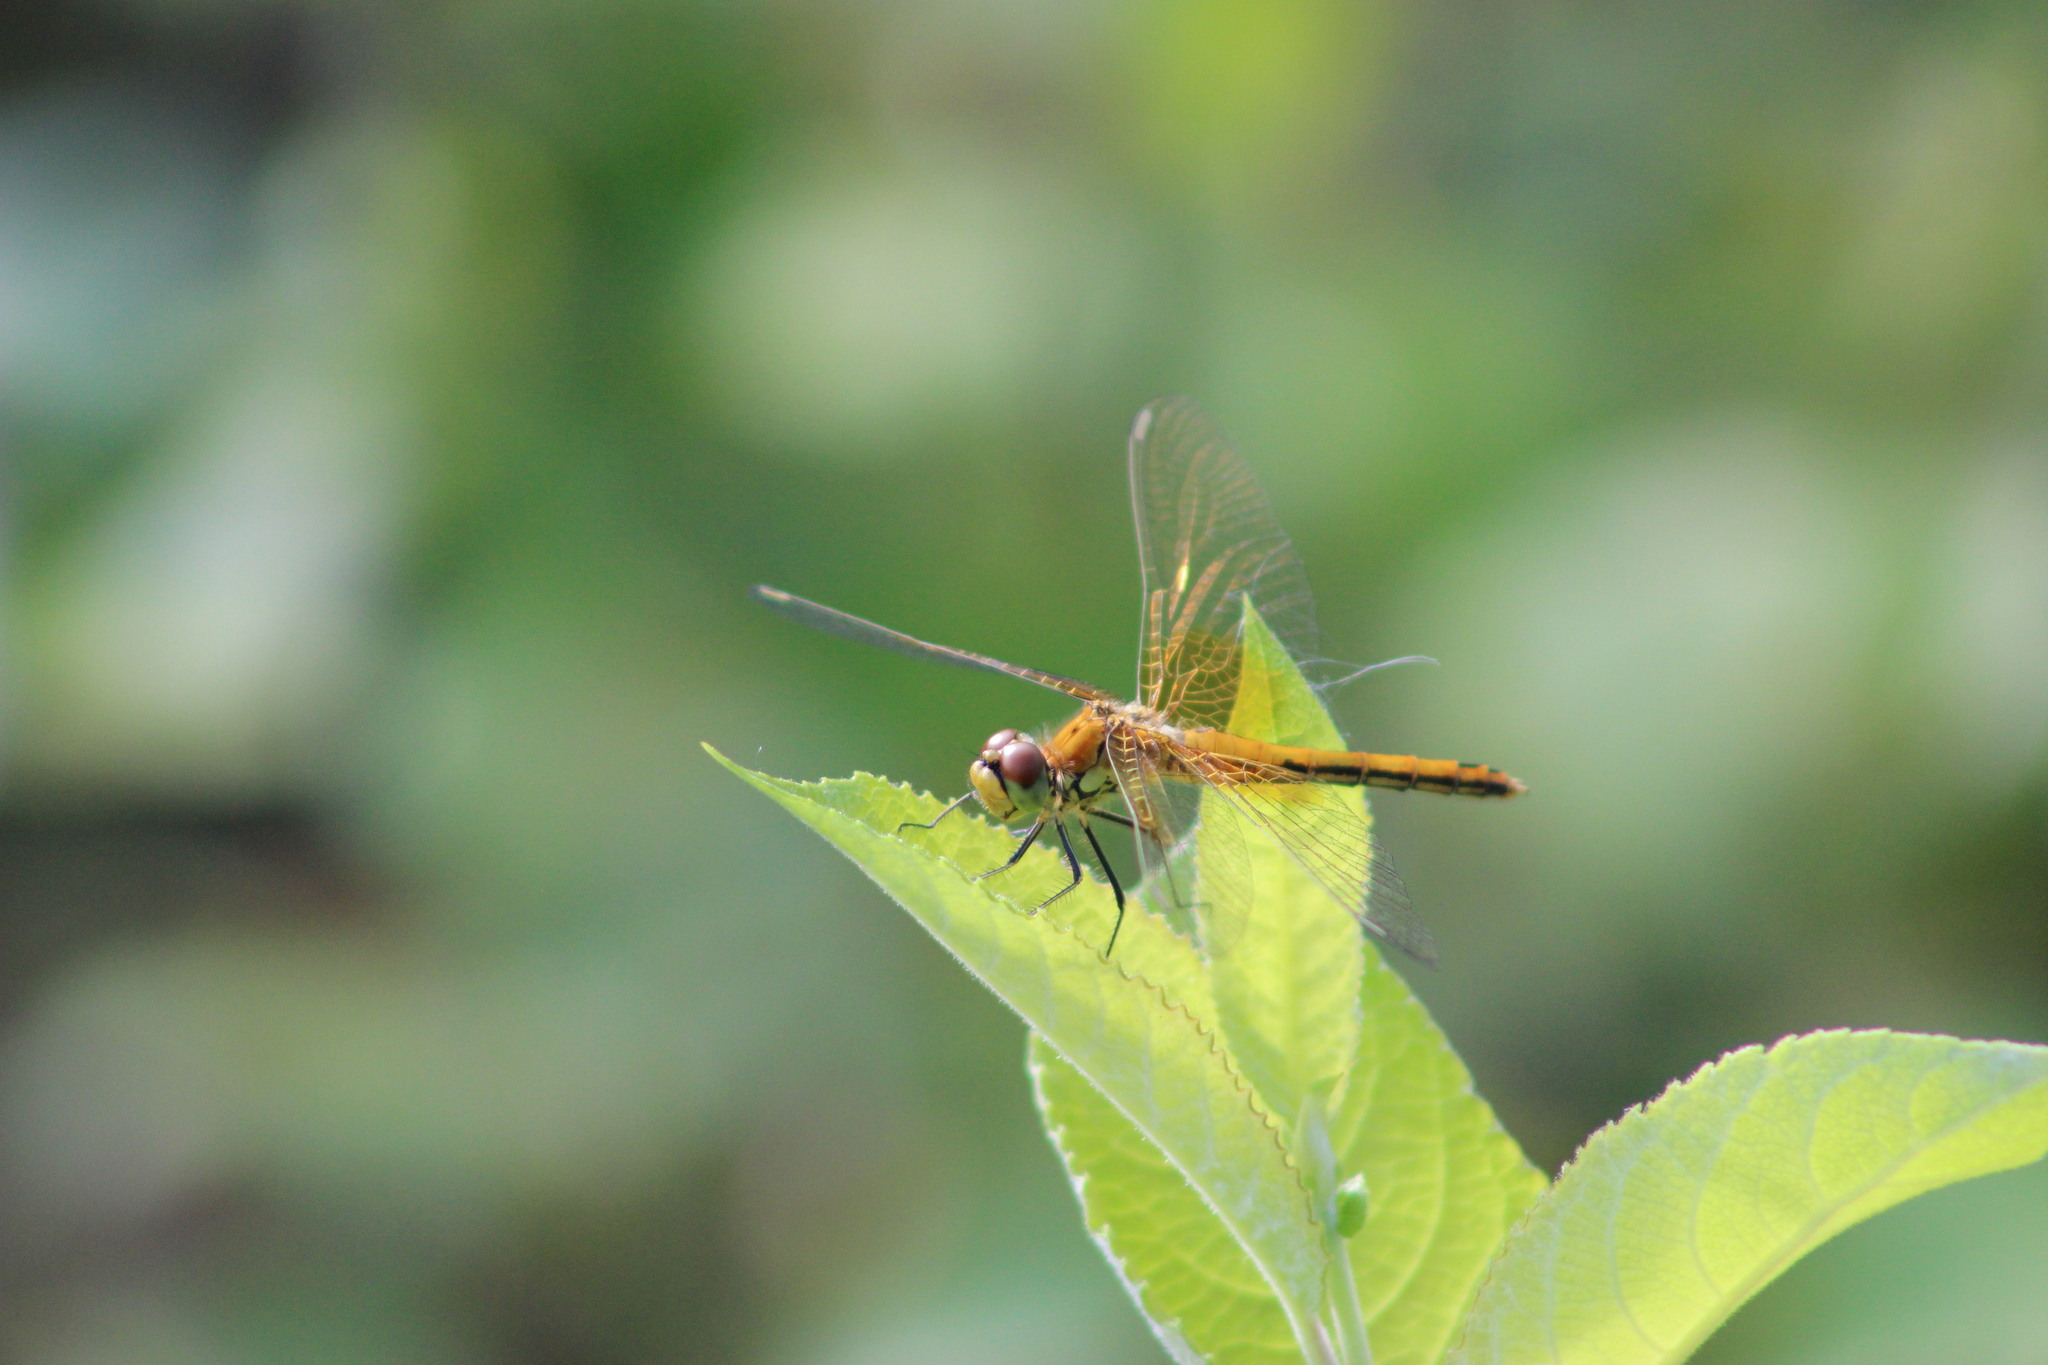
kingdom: Animalia
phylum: Arthropoda
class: Insecta
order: Odonata
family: Libellulidae
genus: Sympetrum
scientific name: Sympetrum flaveolum
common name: Yellow-winged darter
